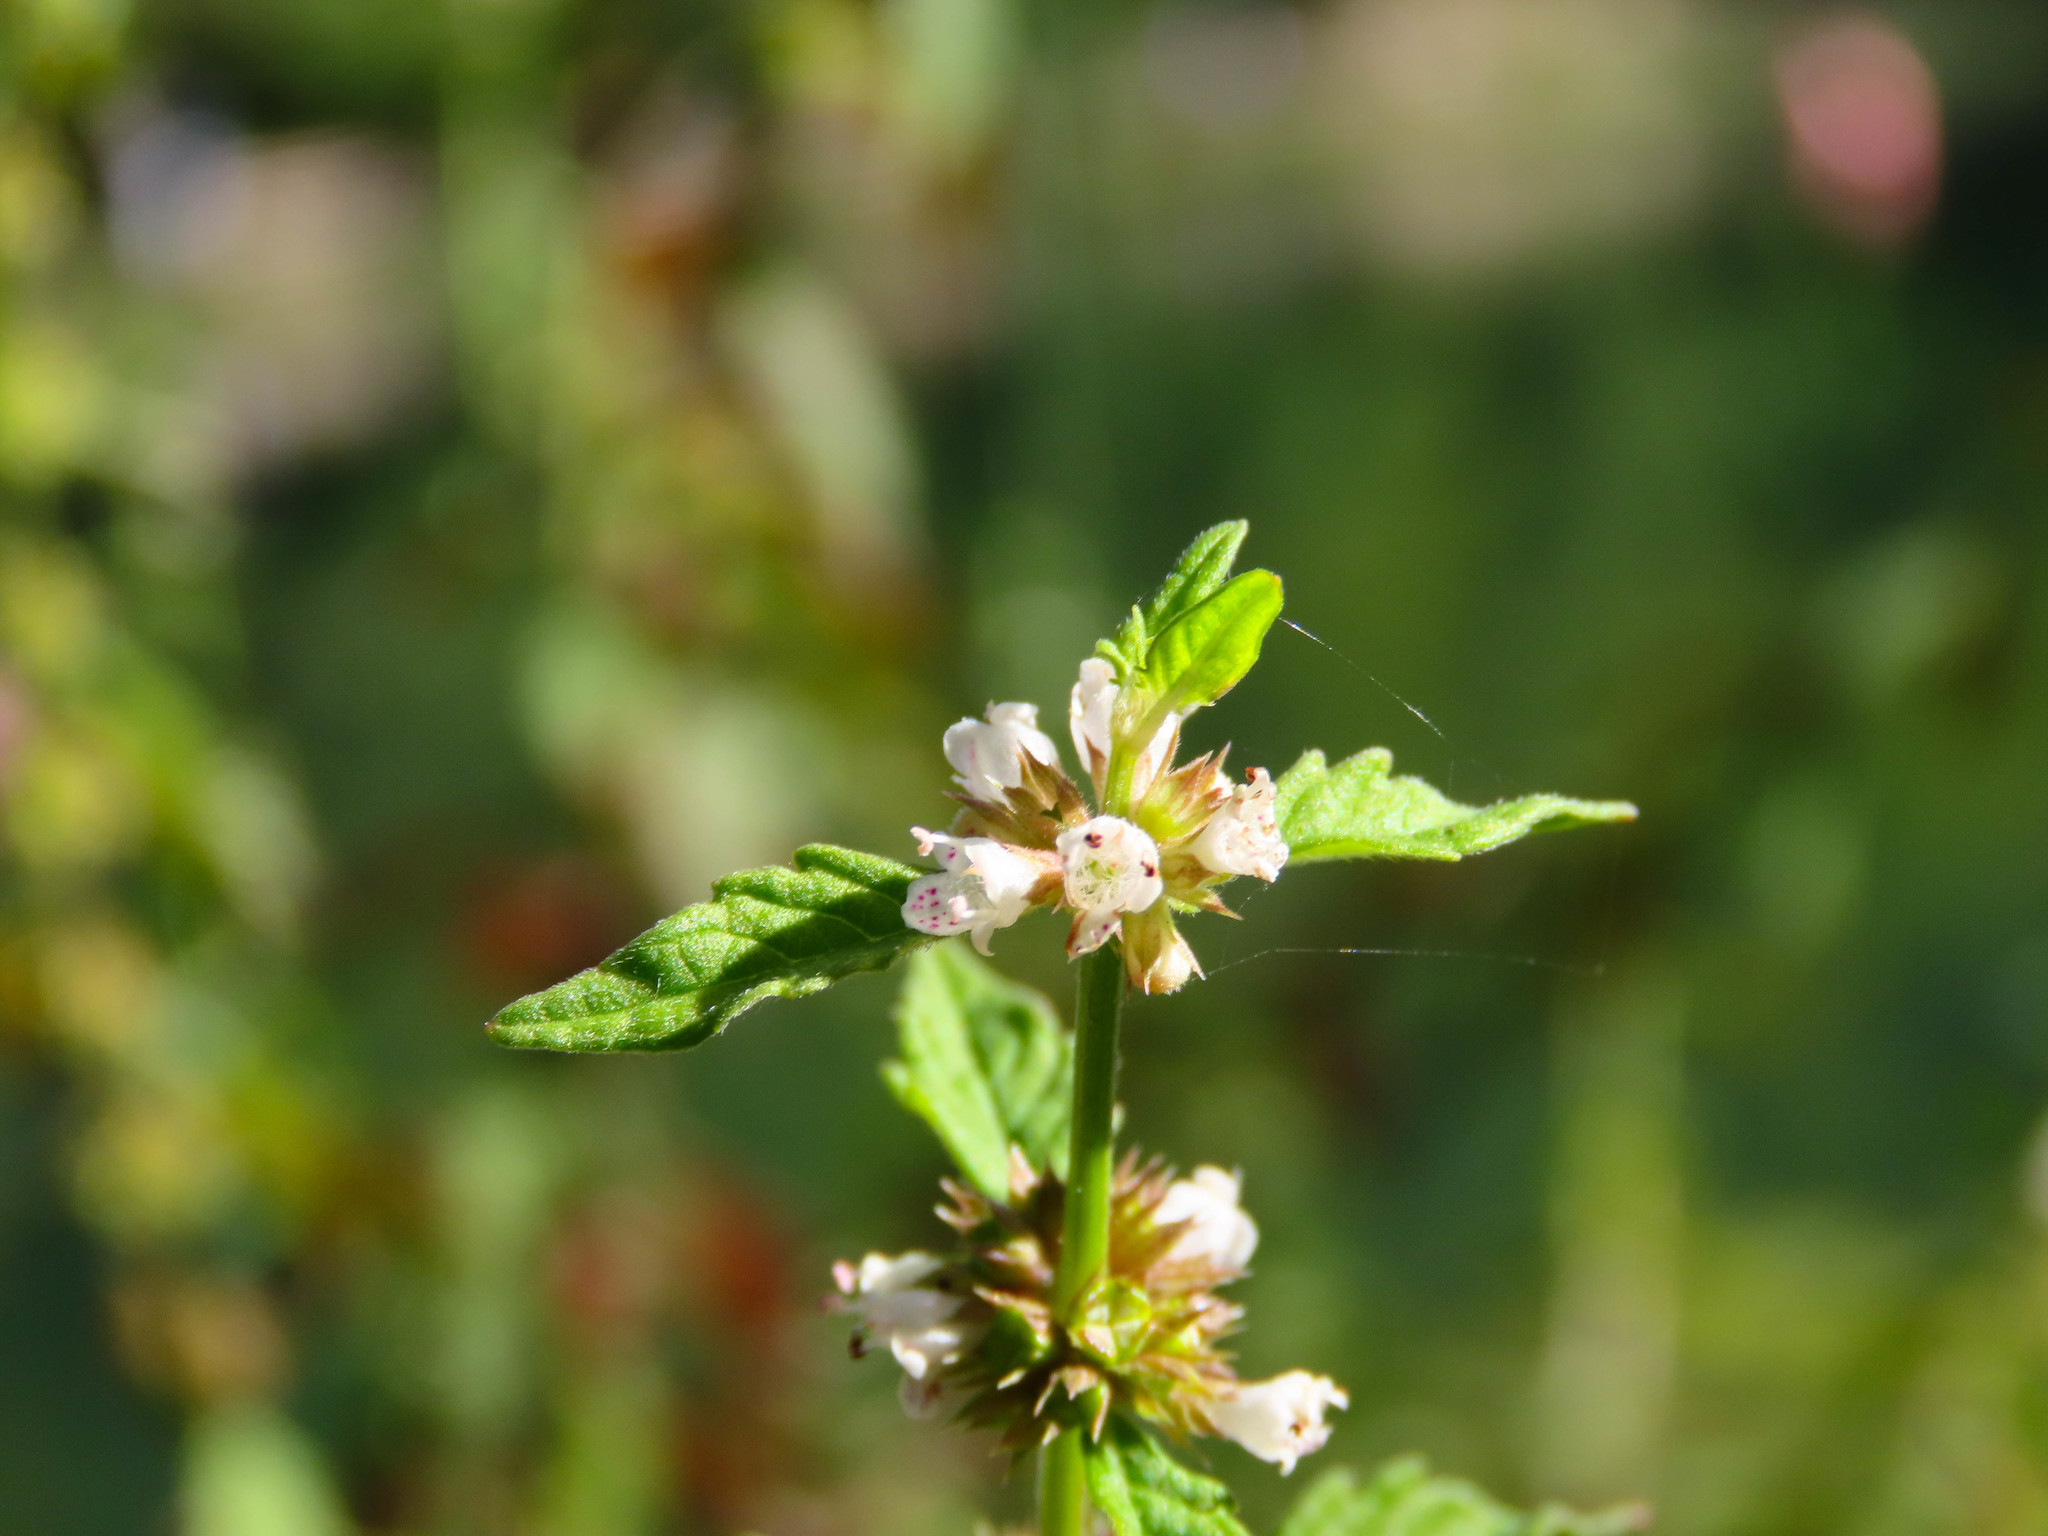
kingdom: Plantae
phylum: Tracheophyta
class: Magnoliopsida
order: Lamiales
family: Lamiaceae
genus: Lycopus
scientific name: Lycopus europaeus
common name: European bugleweed
